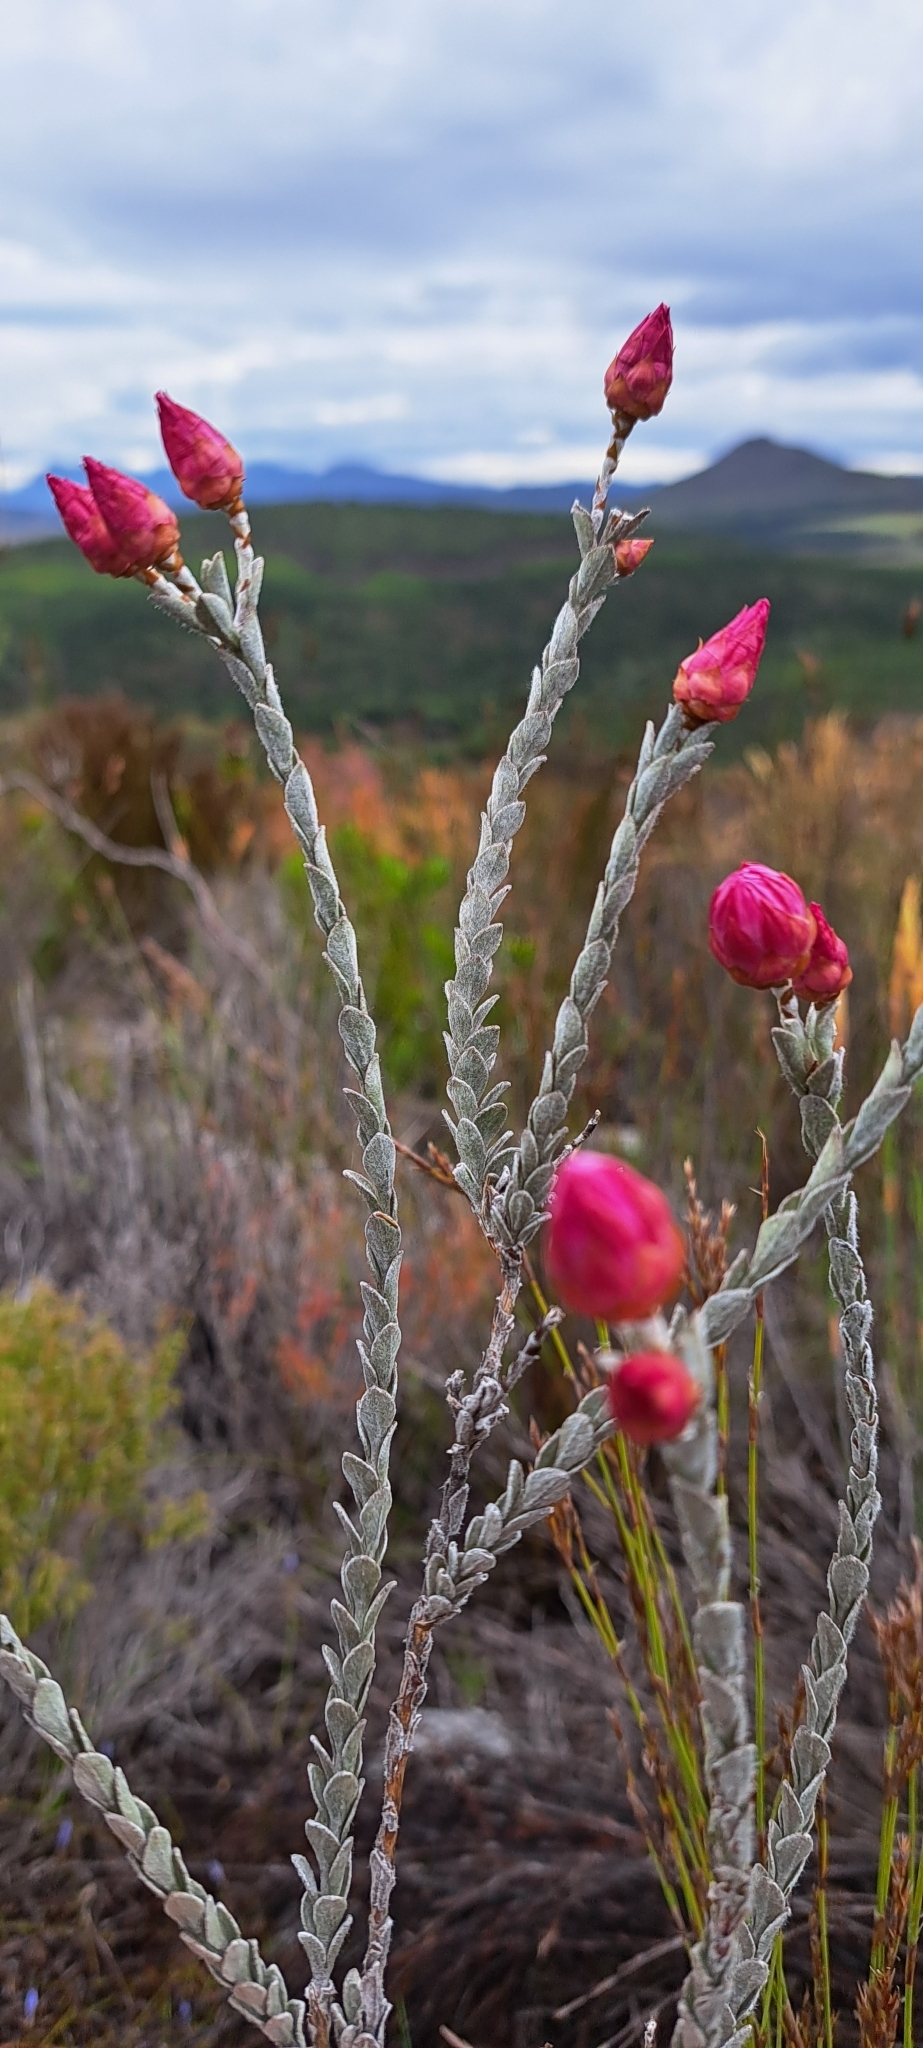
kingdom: Plantae
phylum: Tracheophyta
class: Magnoliopsida
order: Asterales
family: Asteraceae
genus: Syncarpha
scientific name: Syncarpha canescens
